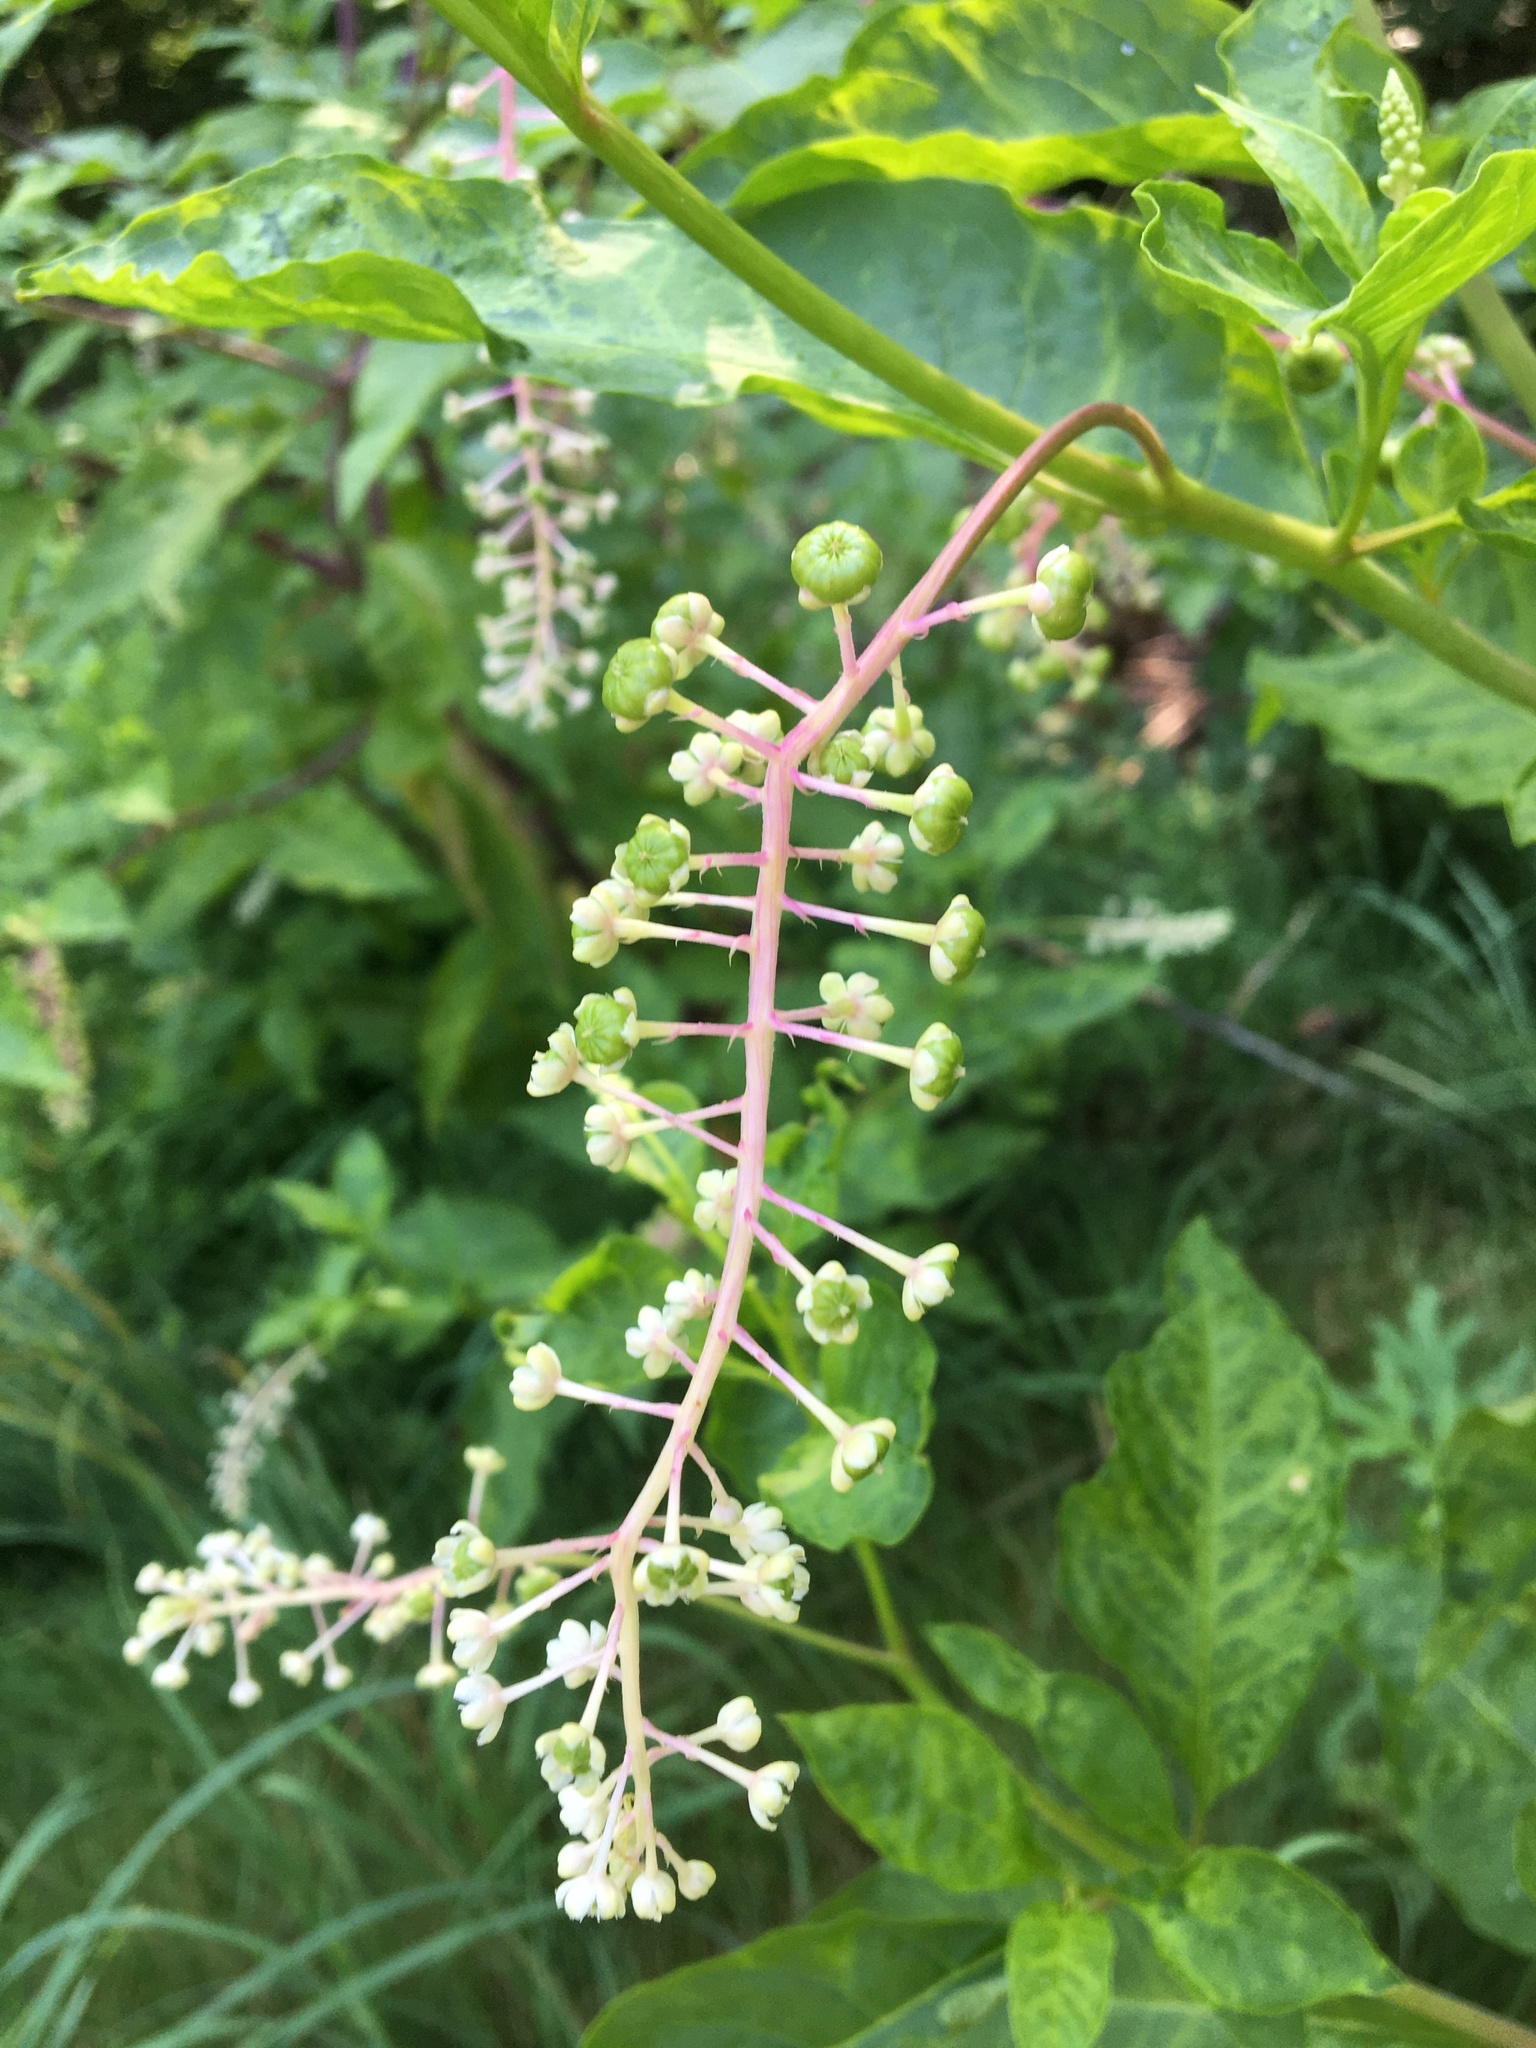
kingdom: Plantae
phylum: Tracheophyta
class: Magnoliopsida
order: Caryophyllales
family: Phytolaccaceae
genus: Phytolacca
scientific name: Phytolacca americana
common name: American pokeweed
